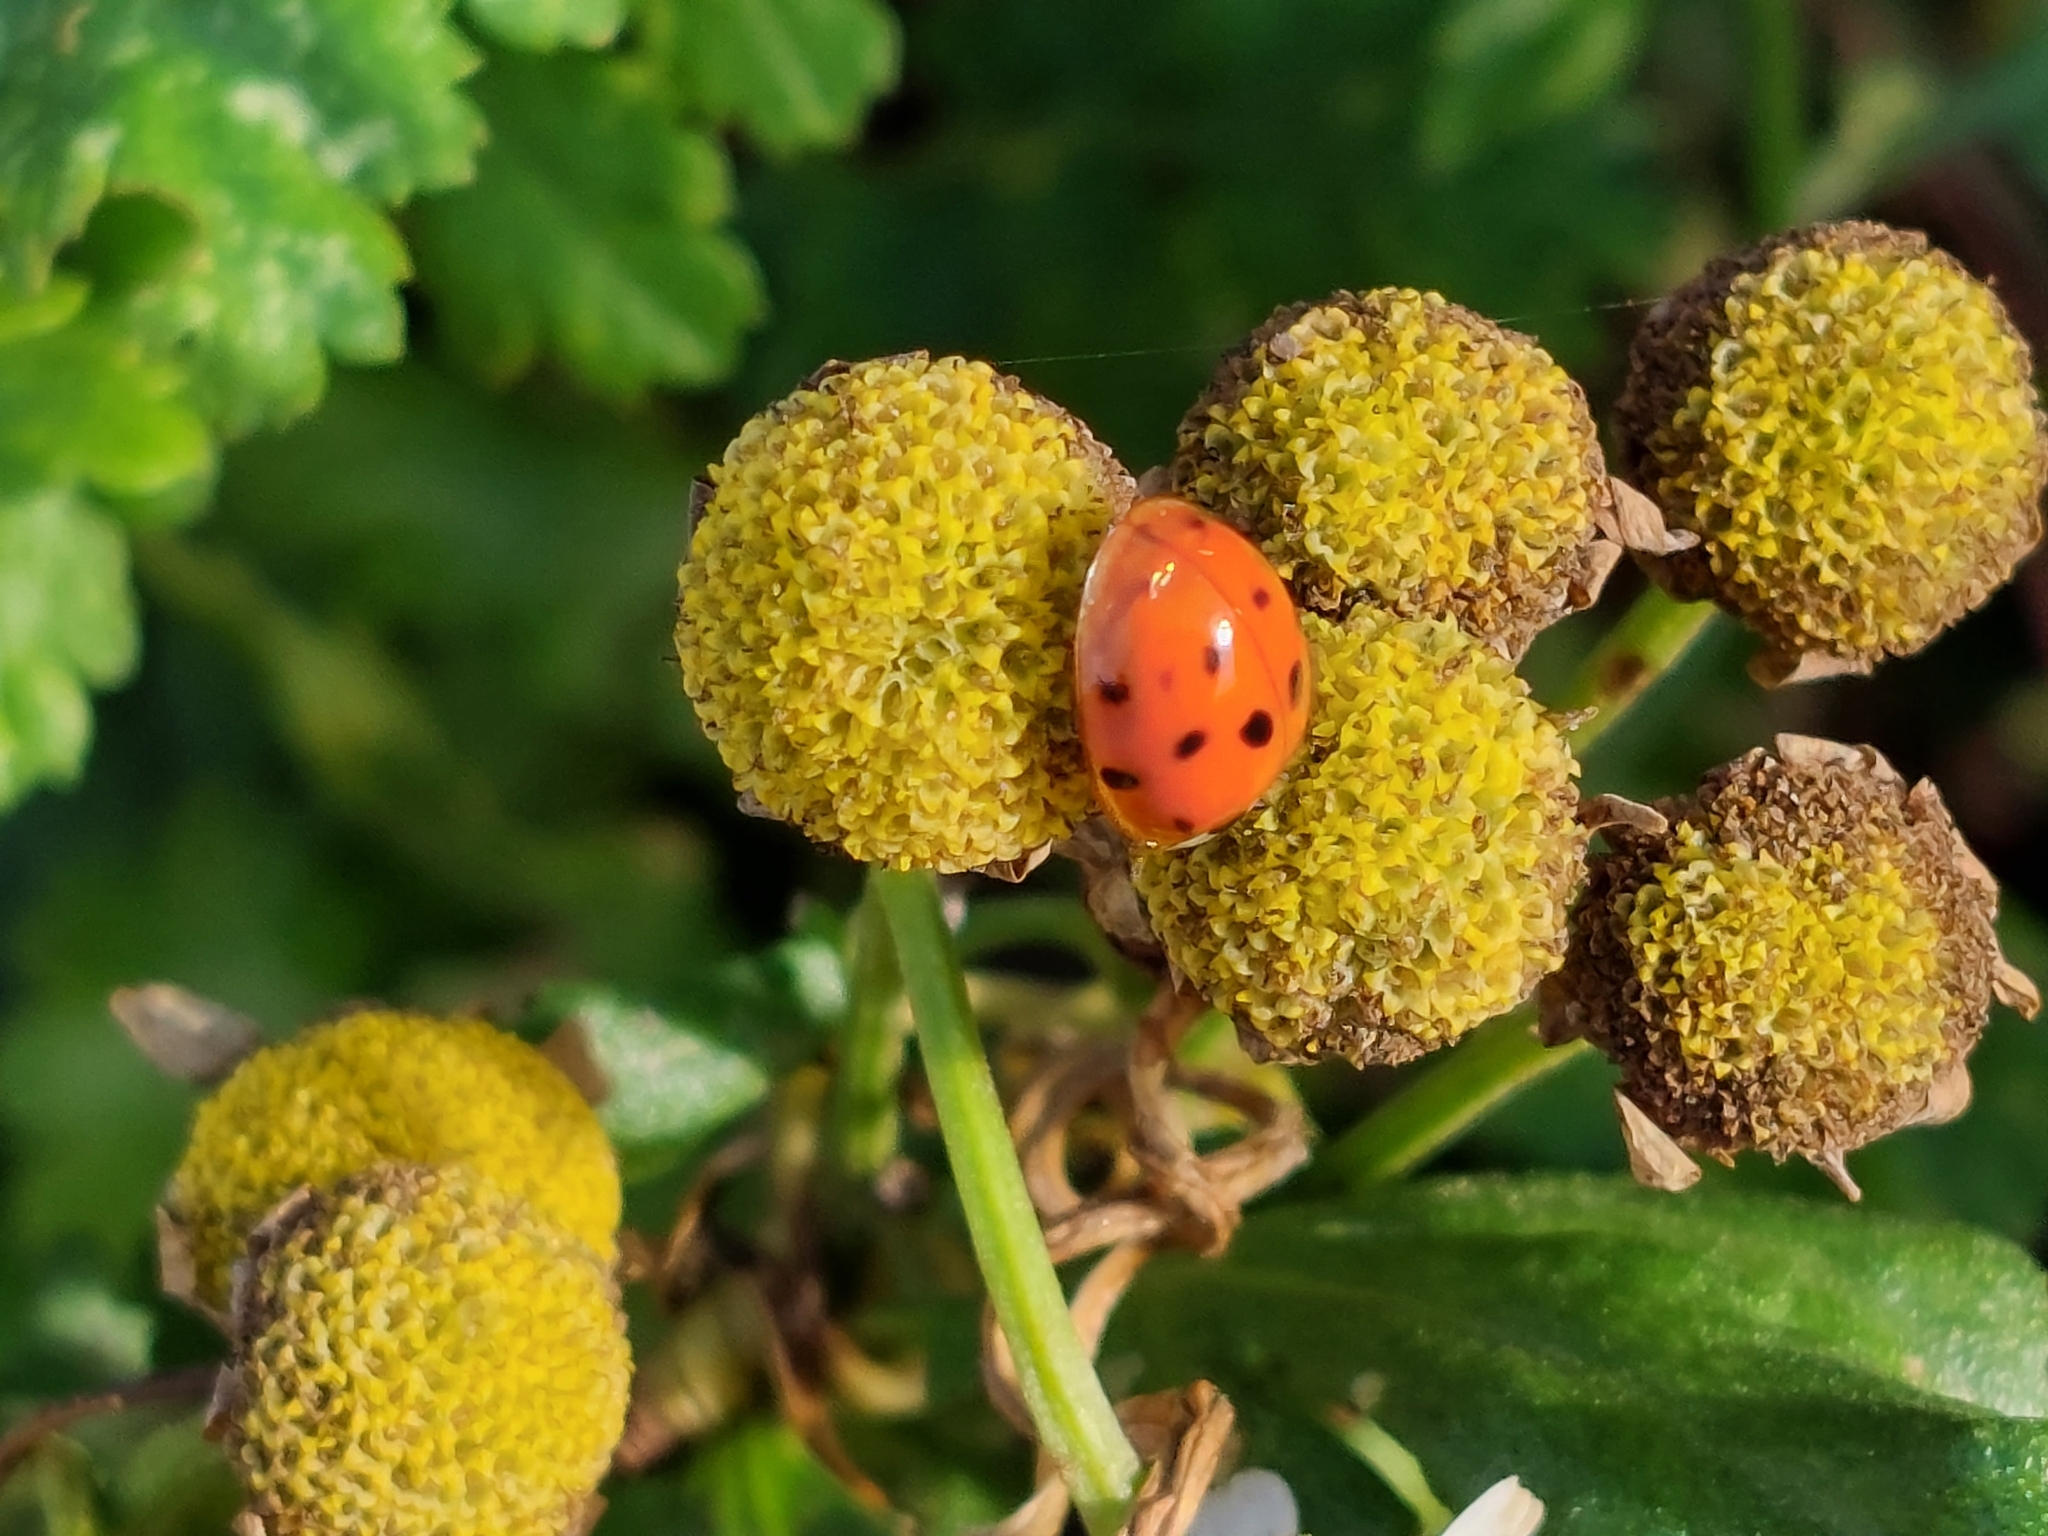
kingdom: Animalia
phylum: Arthropoda
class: Insecta
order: Coleoptera
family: Coccinellidae
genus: Harmonia
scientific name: Harmonia axyridis
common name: Harlequin ladybird
